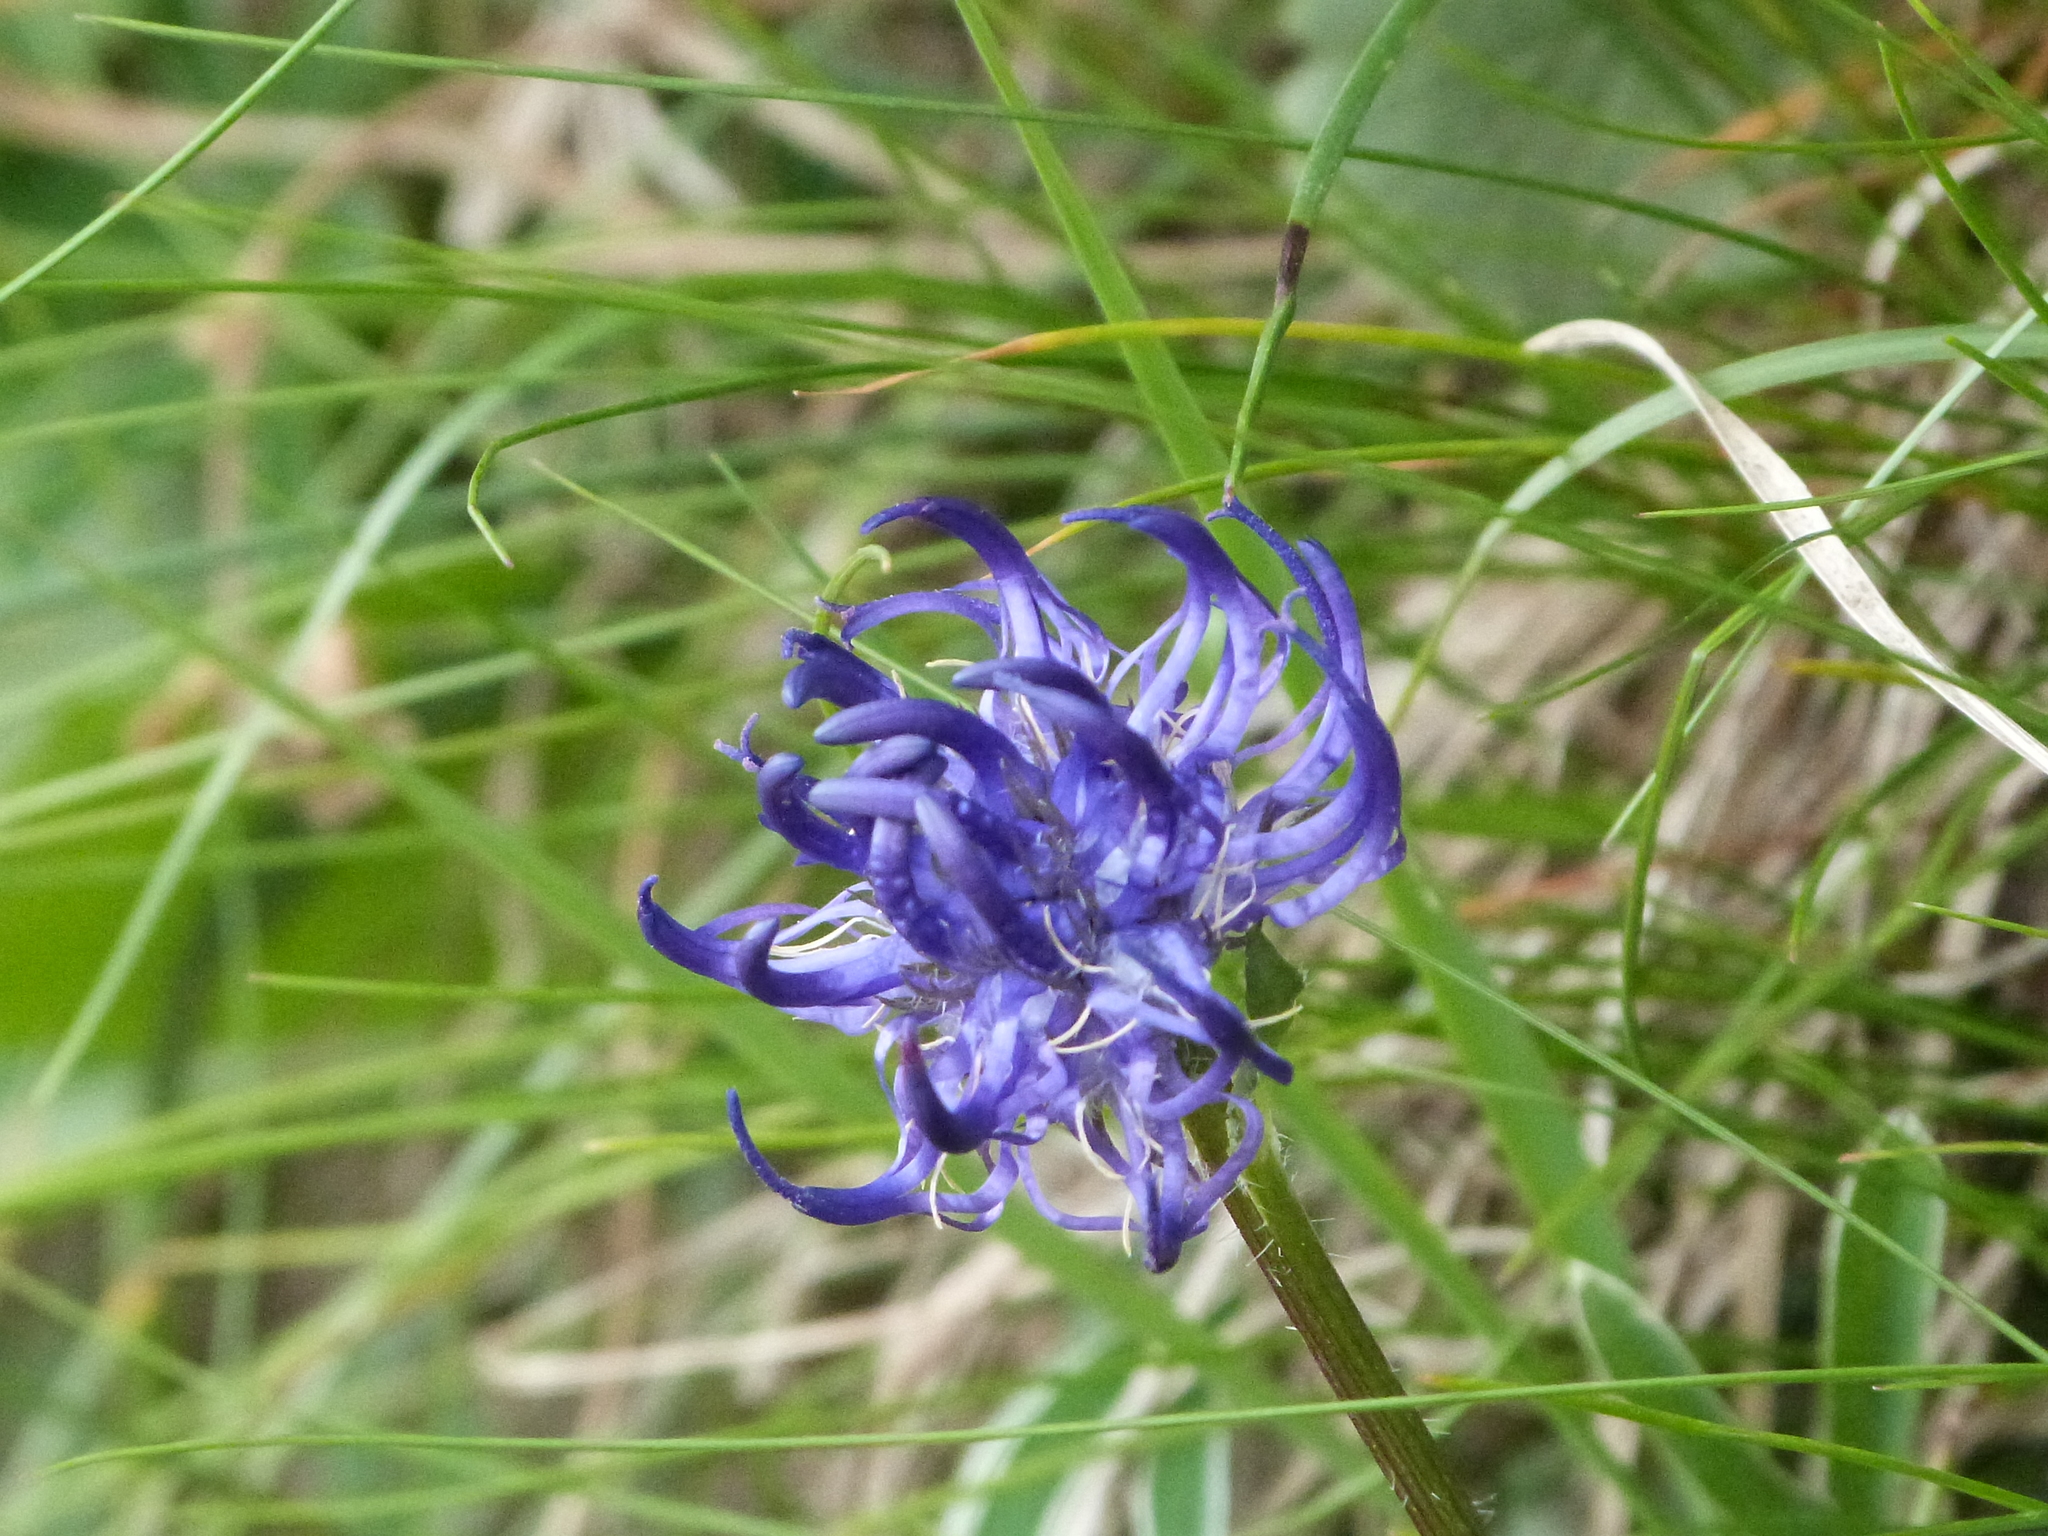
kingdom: Plantae
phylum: Tracheophyta
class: Magnoliopsida
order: Asterales
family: Campanulaceae
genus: Phyteuma
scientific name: Phyteuma orbiculare
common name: Round-headed rampion
